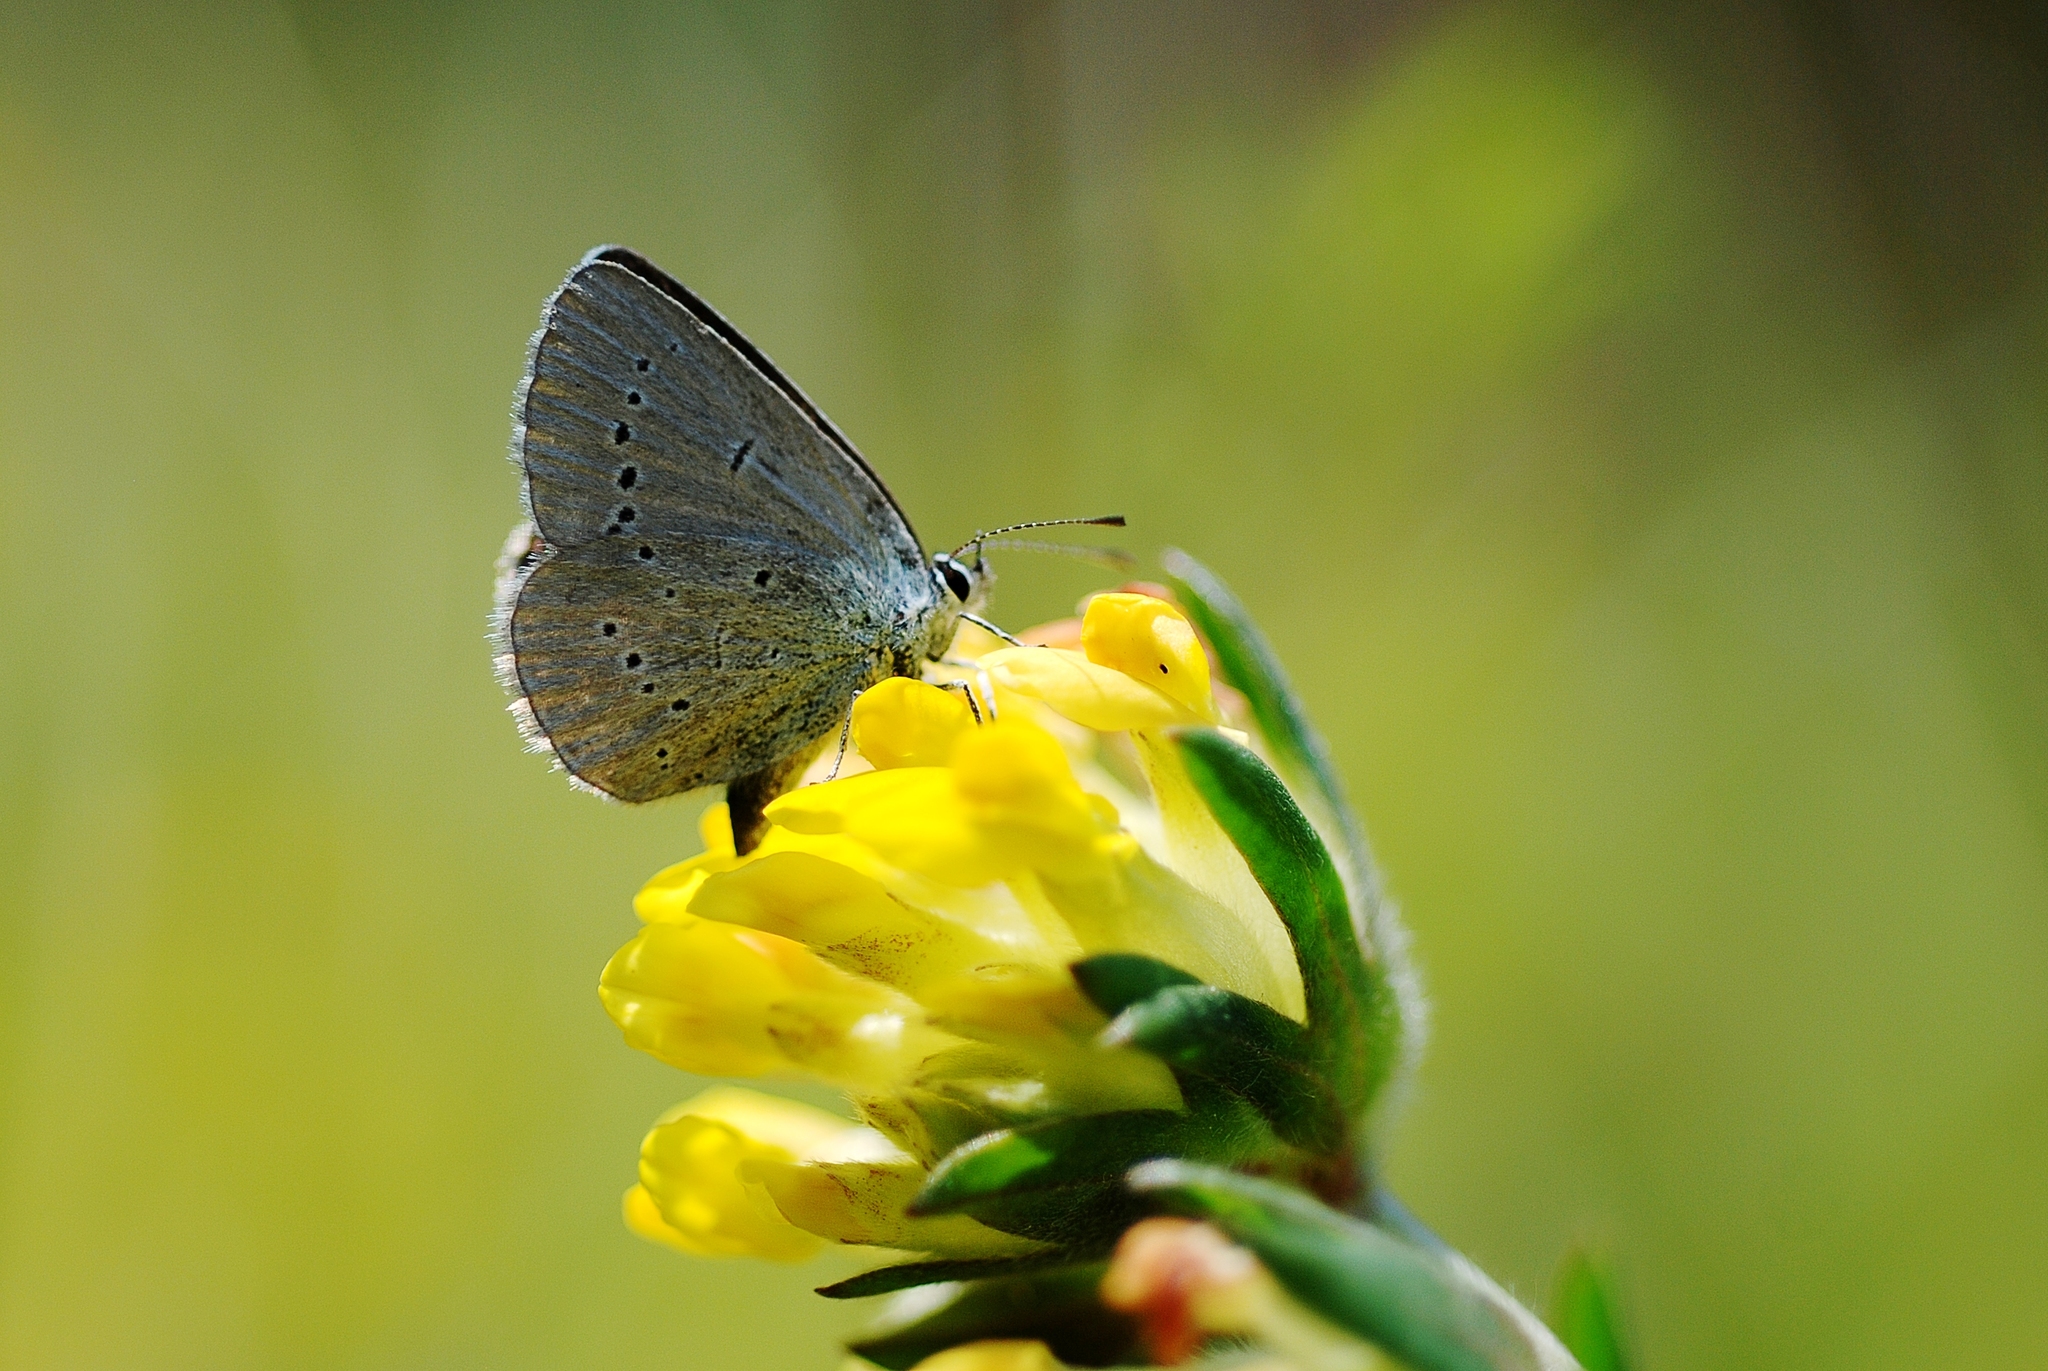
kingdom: Animalia
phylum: Arthropoda
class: Insecta
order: Lepidoptera
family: Lycaenidae
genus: Cupido
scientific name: Cupido minimus
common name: Small blue
